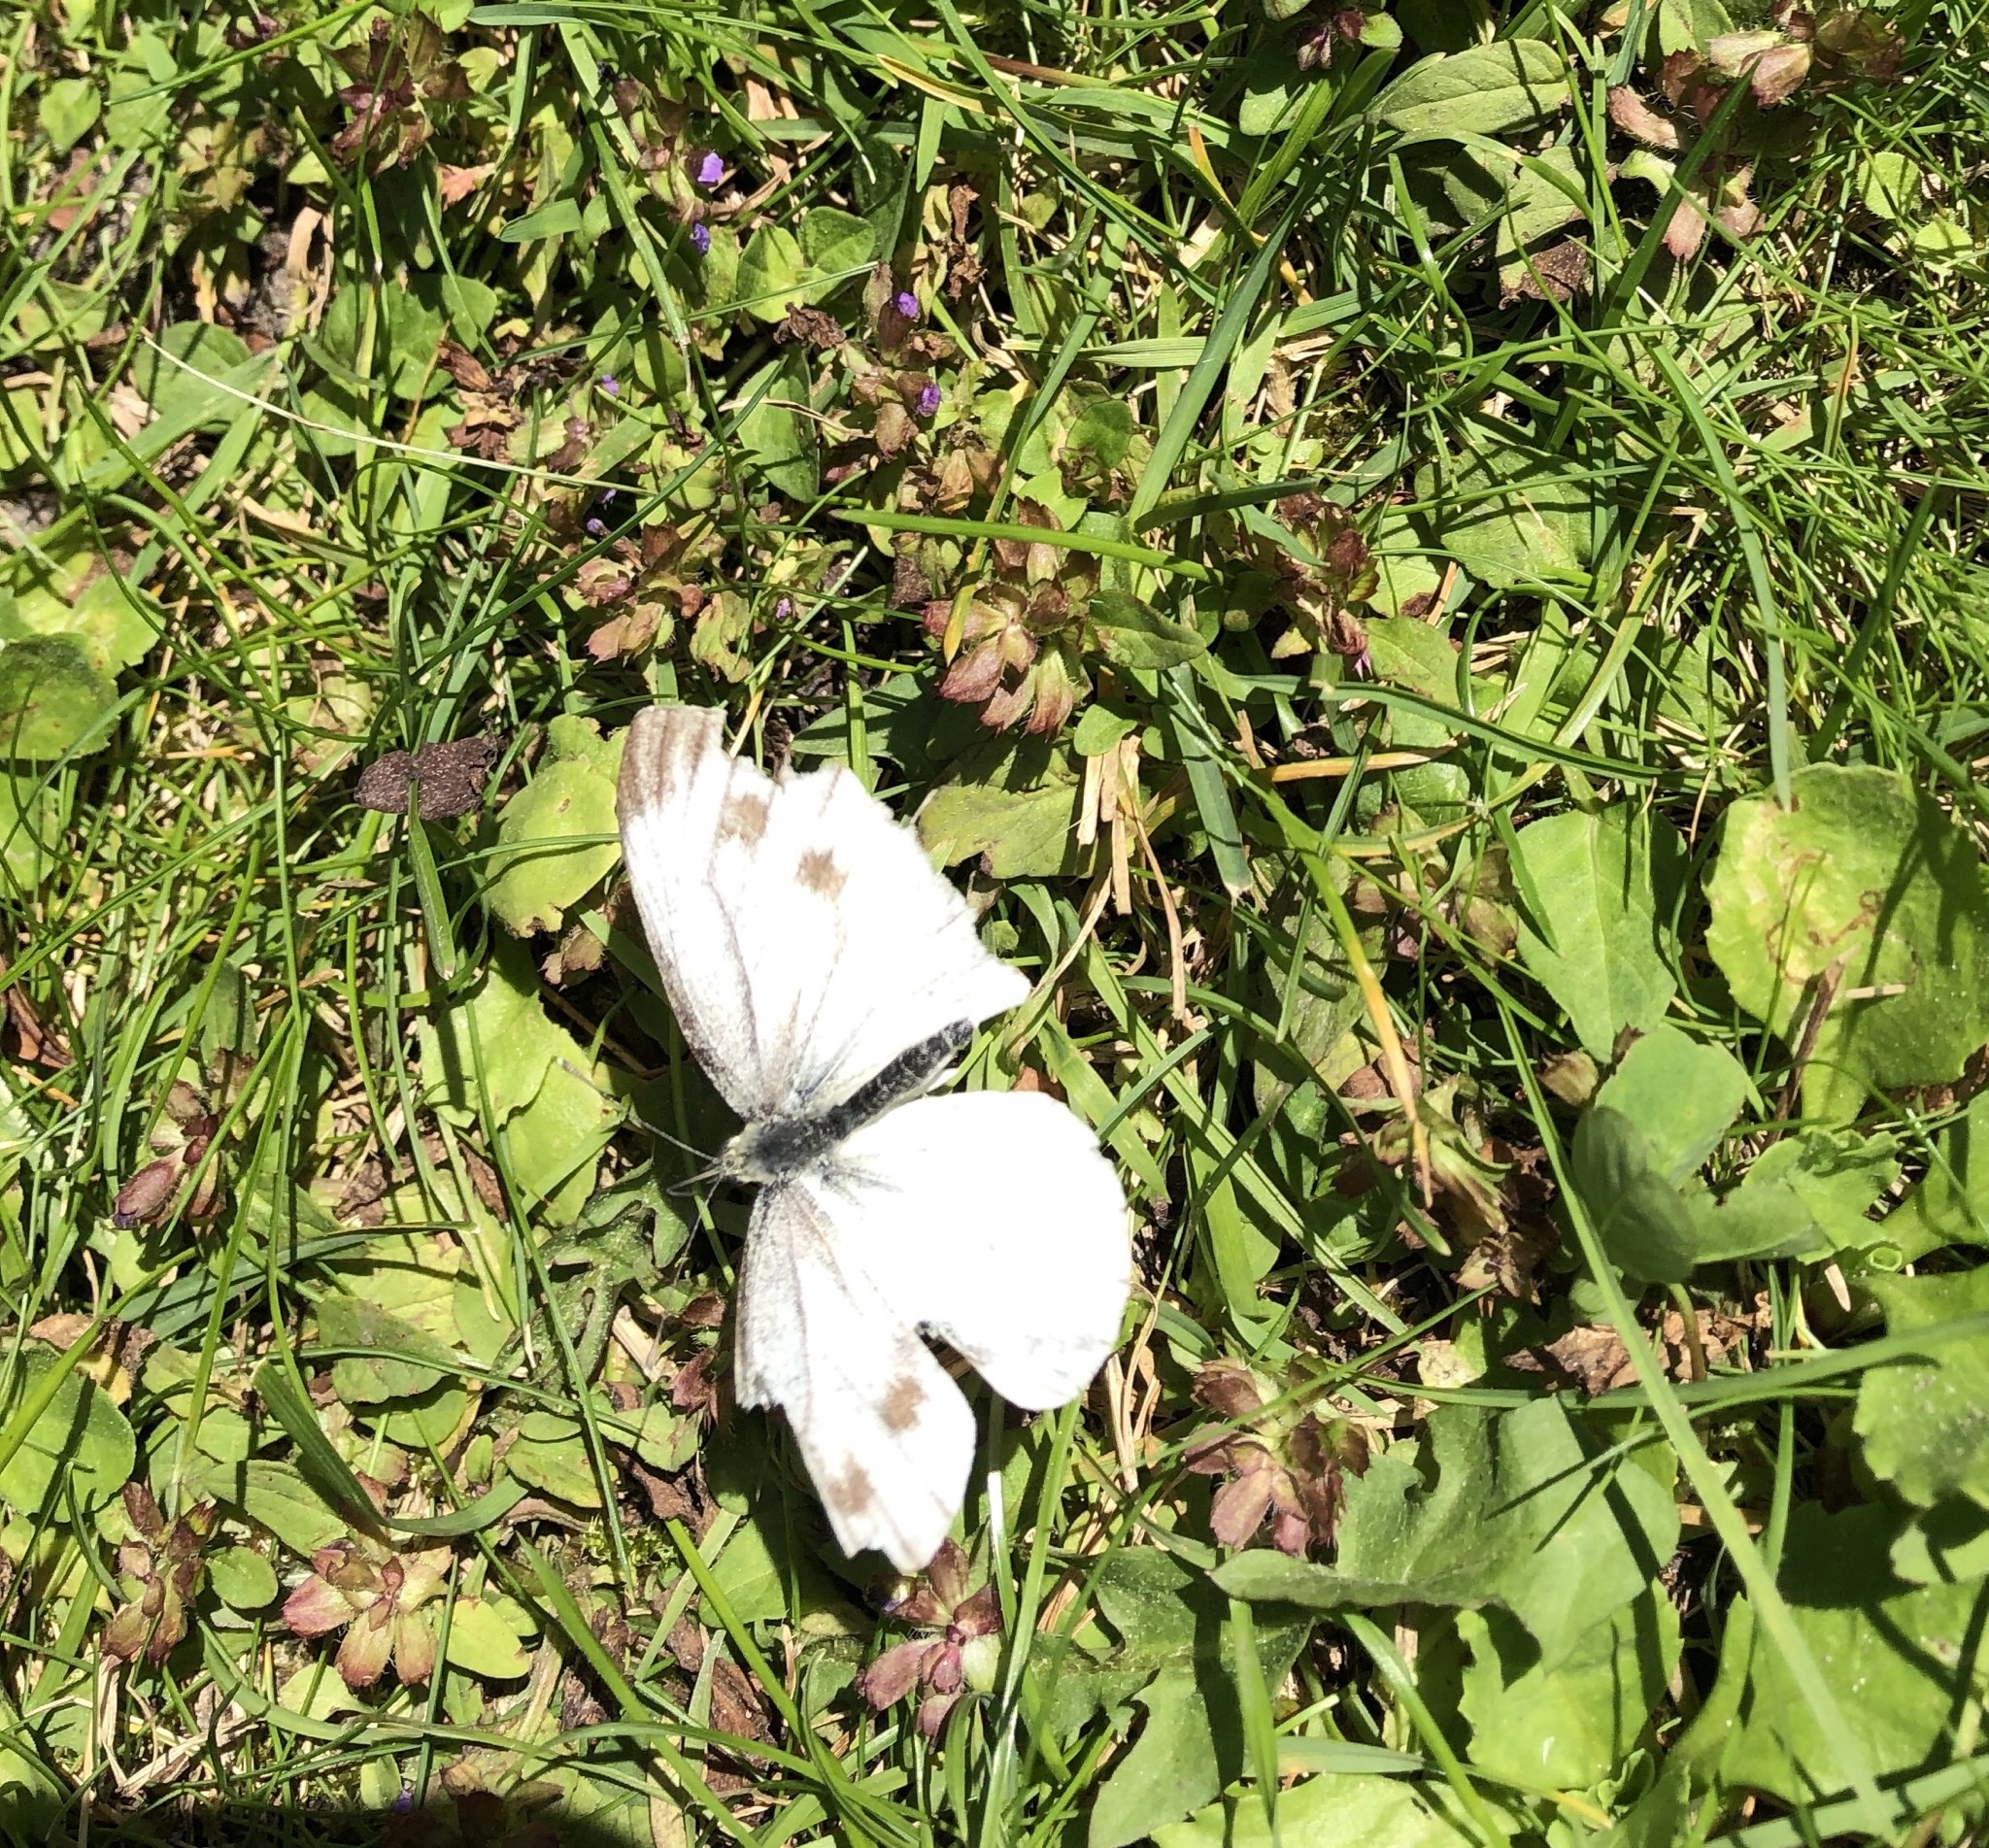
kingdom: Animalia
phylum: Arthropoda
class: Insecta
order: Lepidoptera
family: Pieridae
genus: Pieris
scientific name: Pieris napi
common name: Green-veined white
